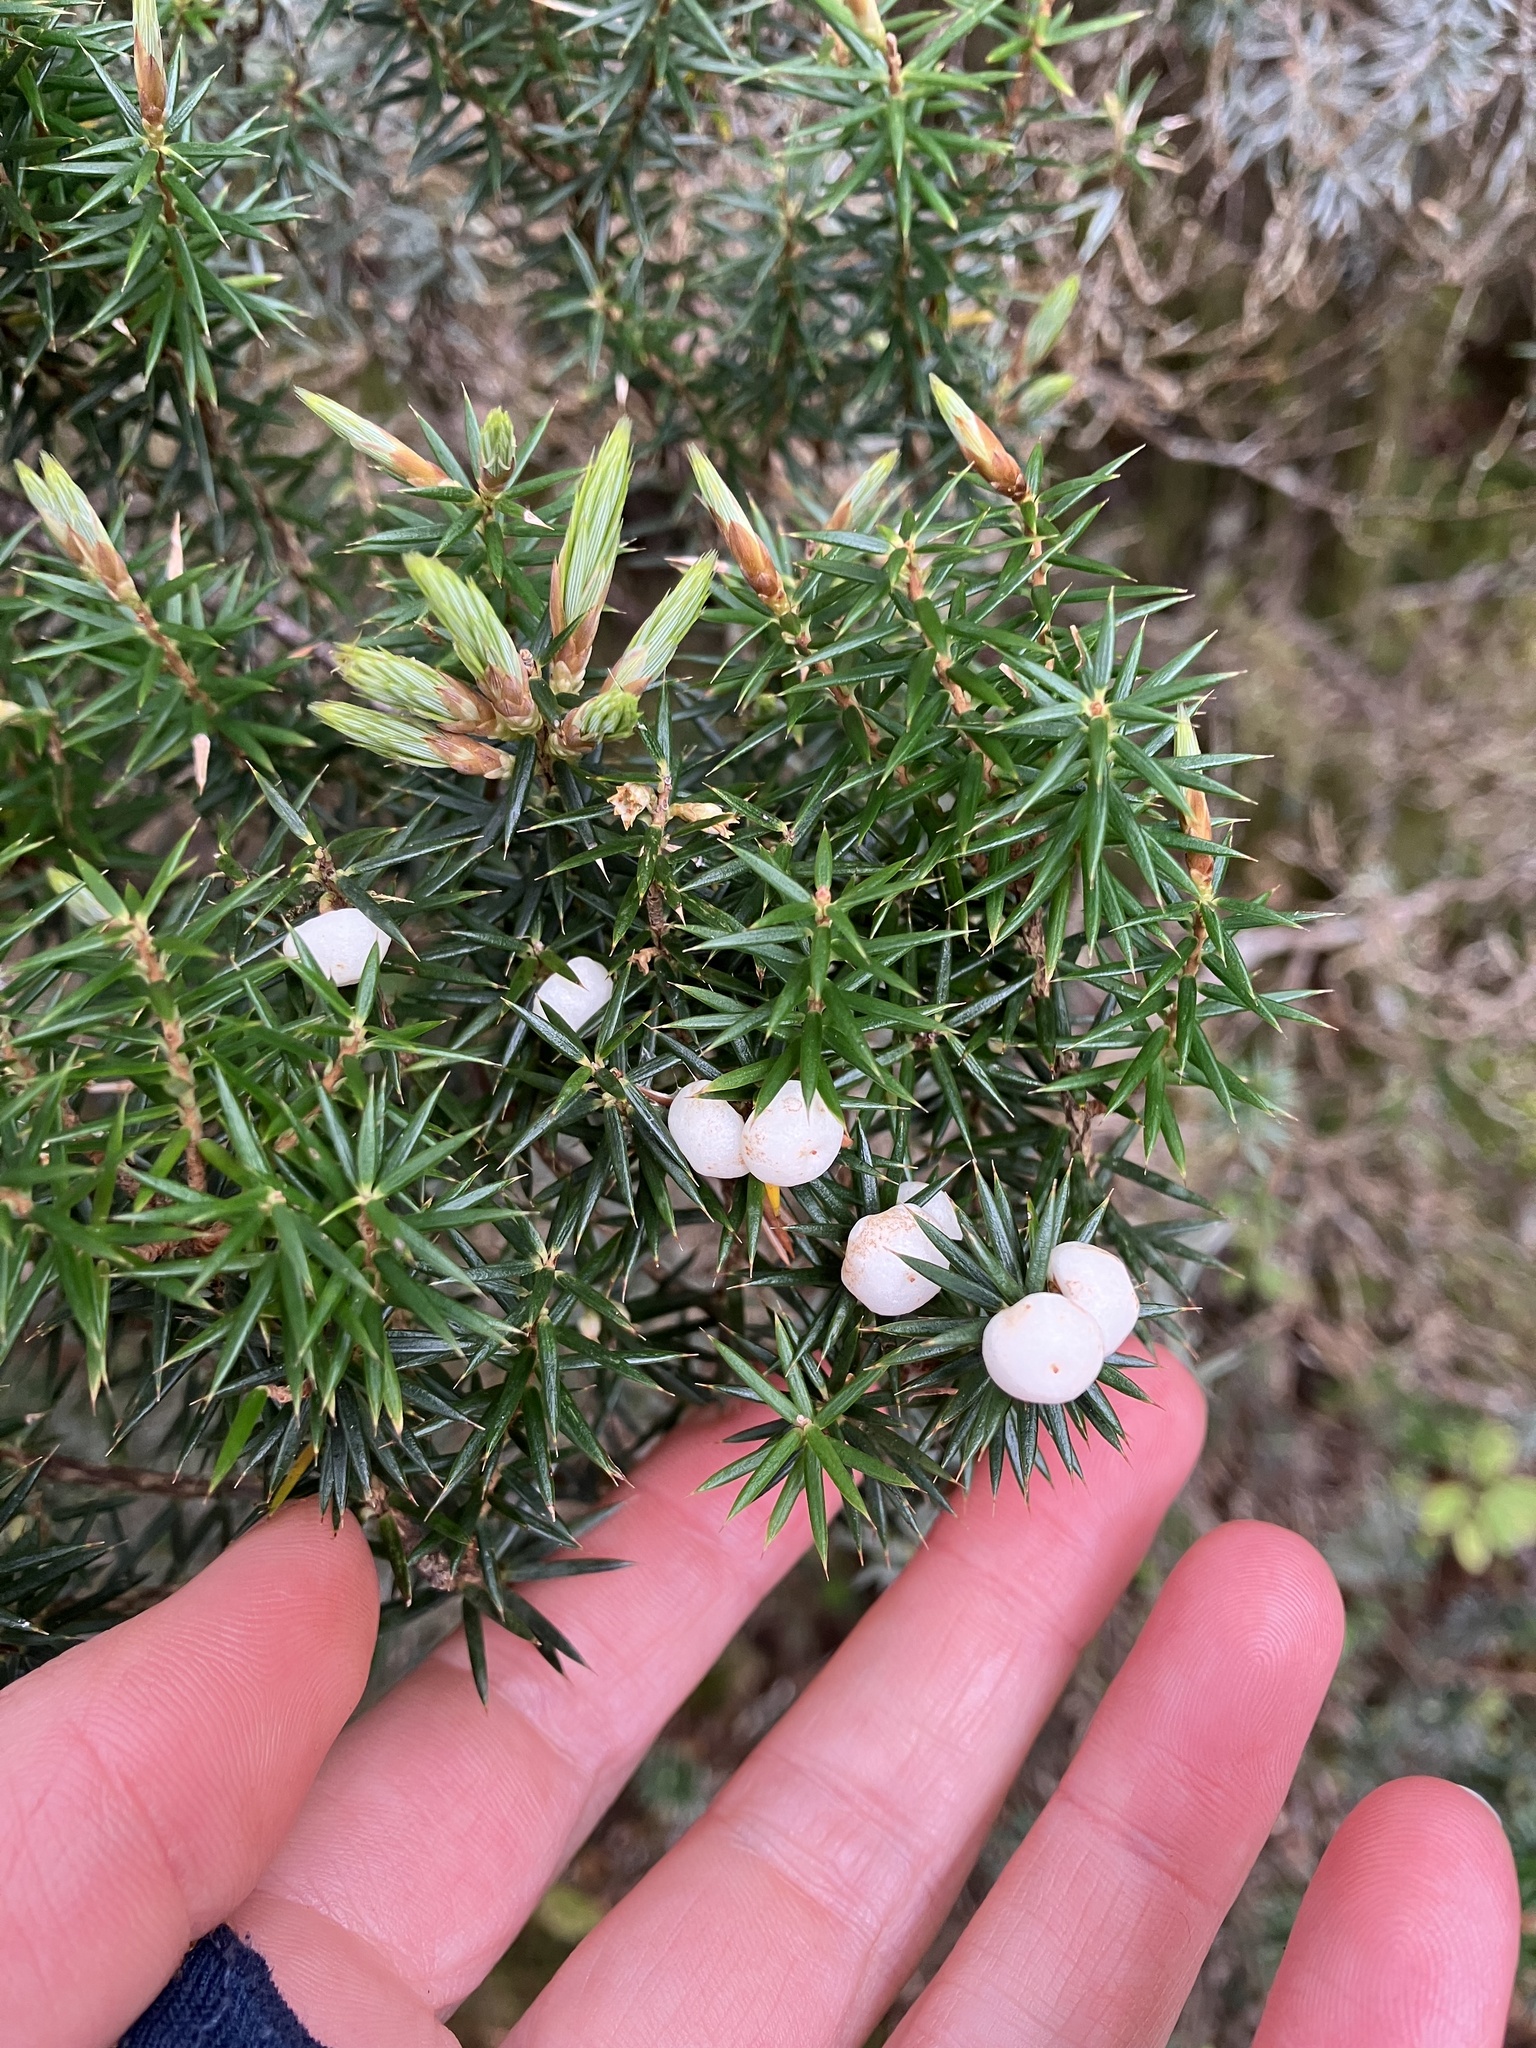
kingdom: Plantae
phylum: Tracheophyta
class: Magnoliopsida
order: Ericales
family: Ericaceae
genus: Leptecophylla
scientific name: Leptecophylla juniperina
